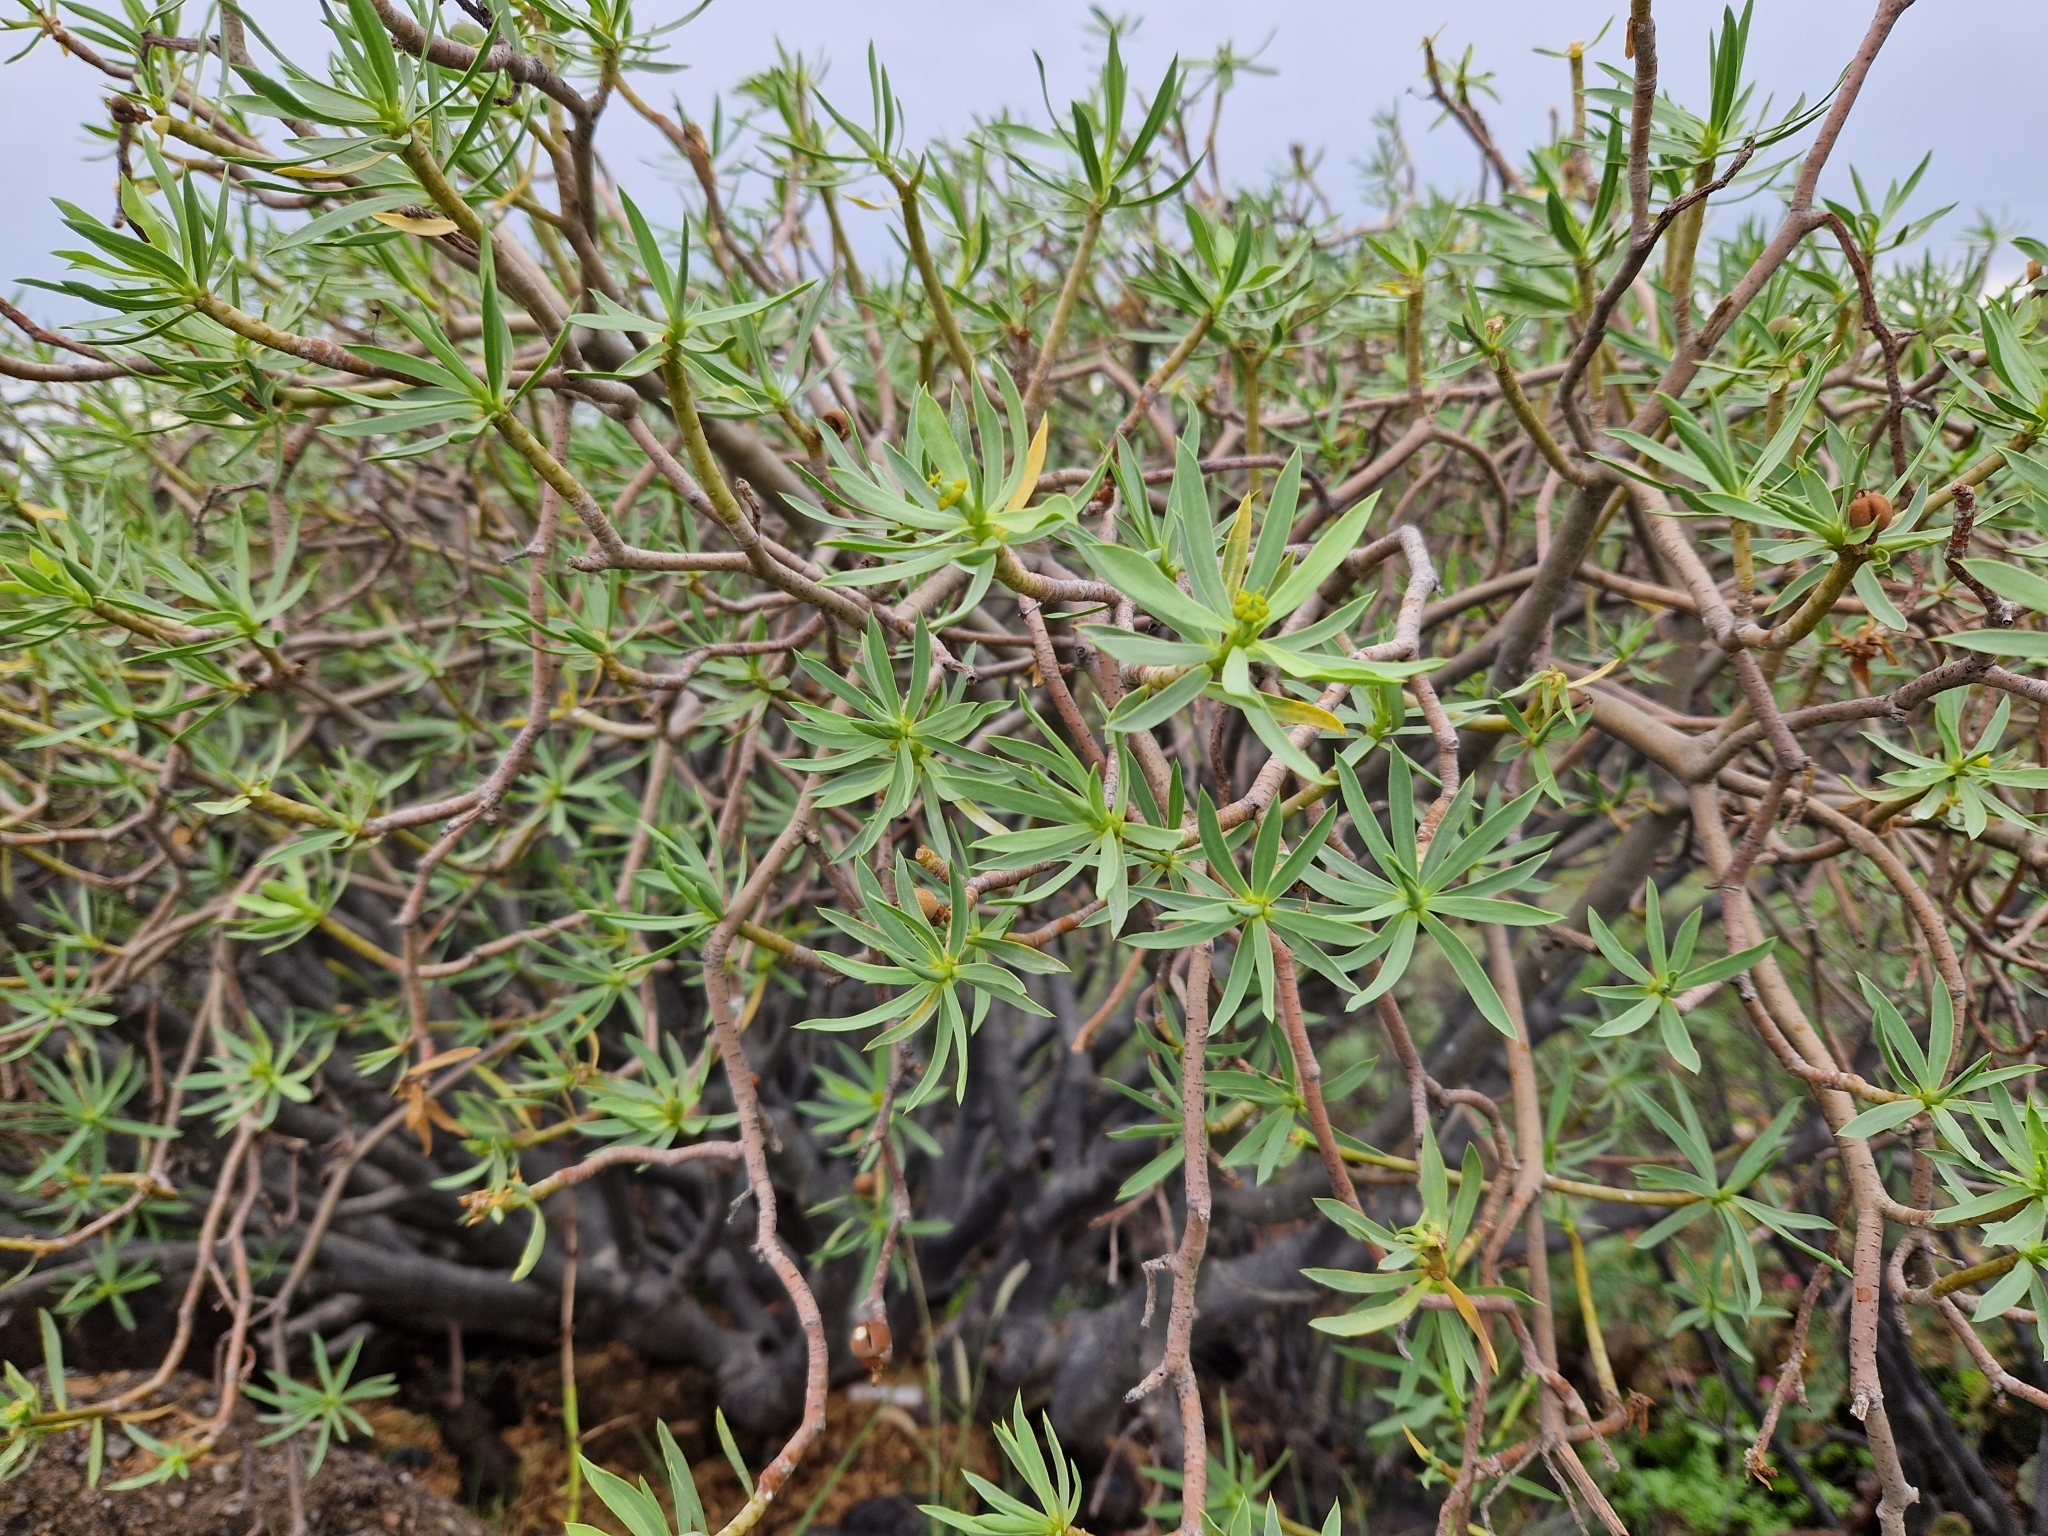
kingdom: Plantae
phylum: Tracheophyta
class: Magnoliopsida
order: Malpighiales
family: Euphorbiaceae
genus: Euphorbia
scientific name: Euphorbia balsamifera
